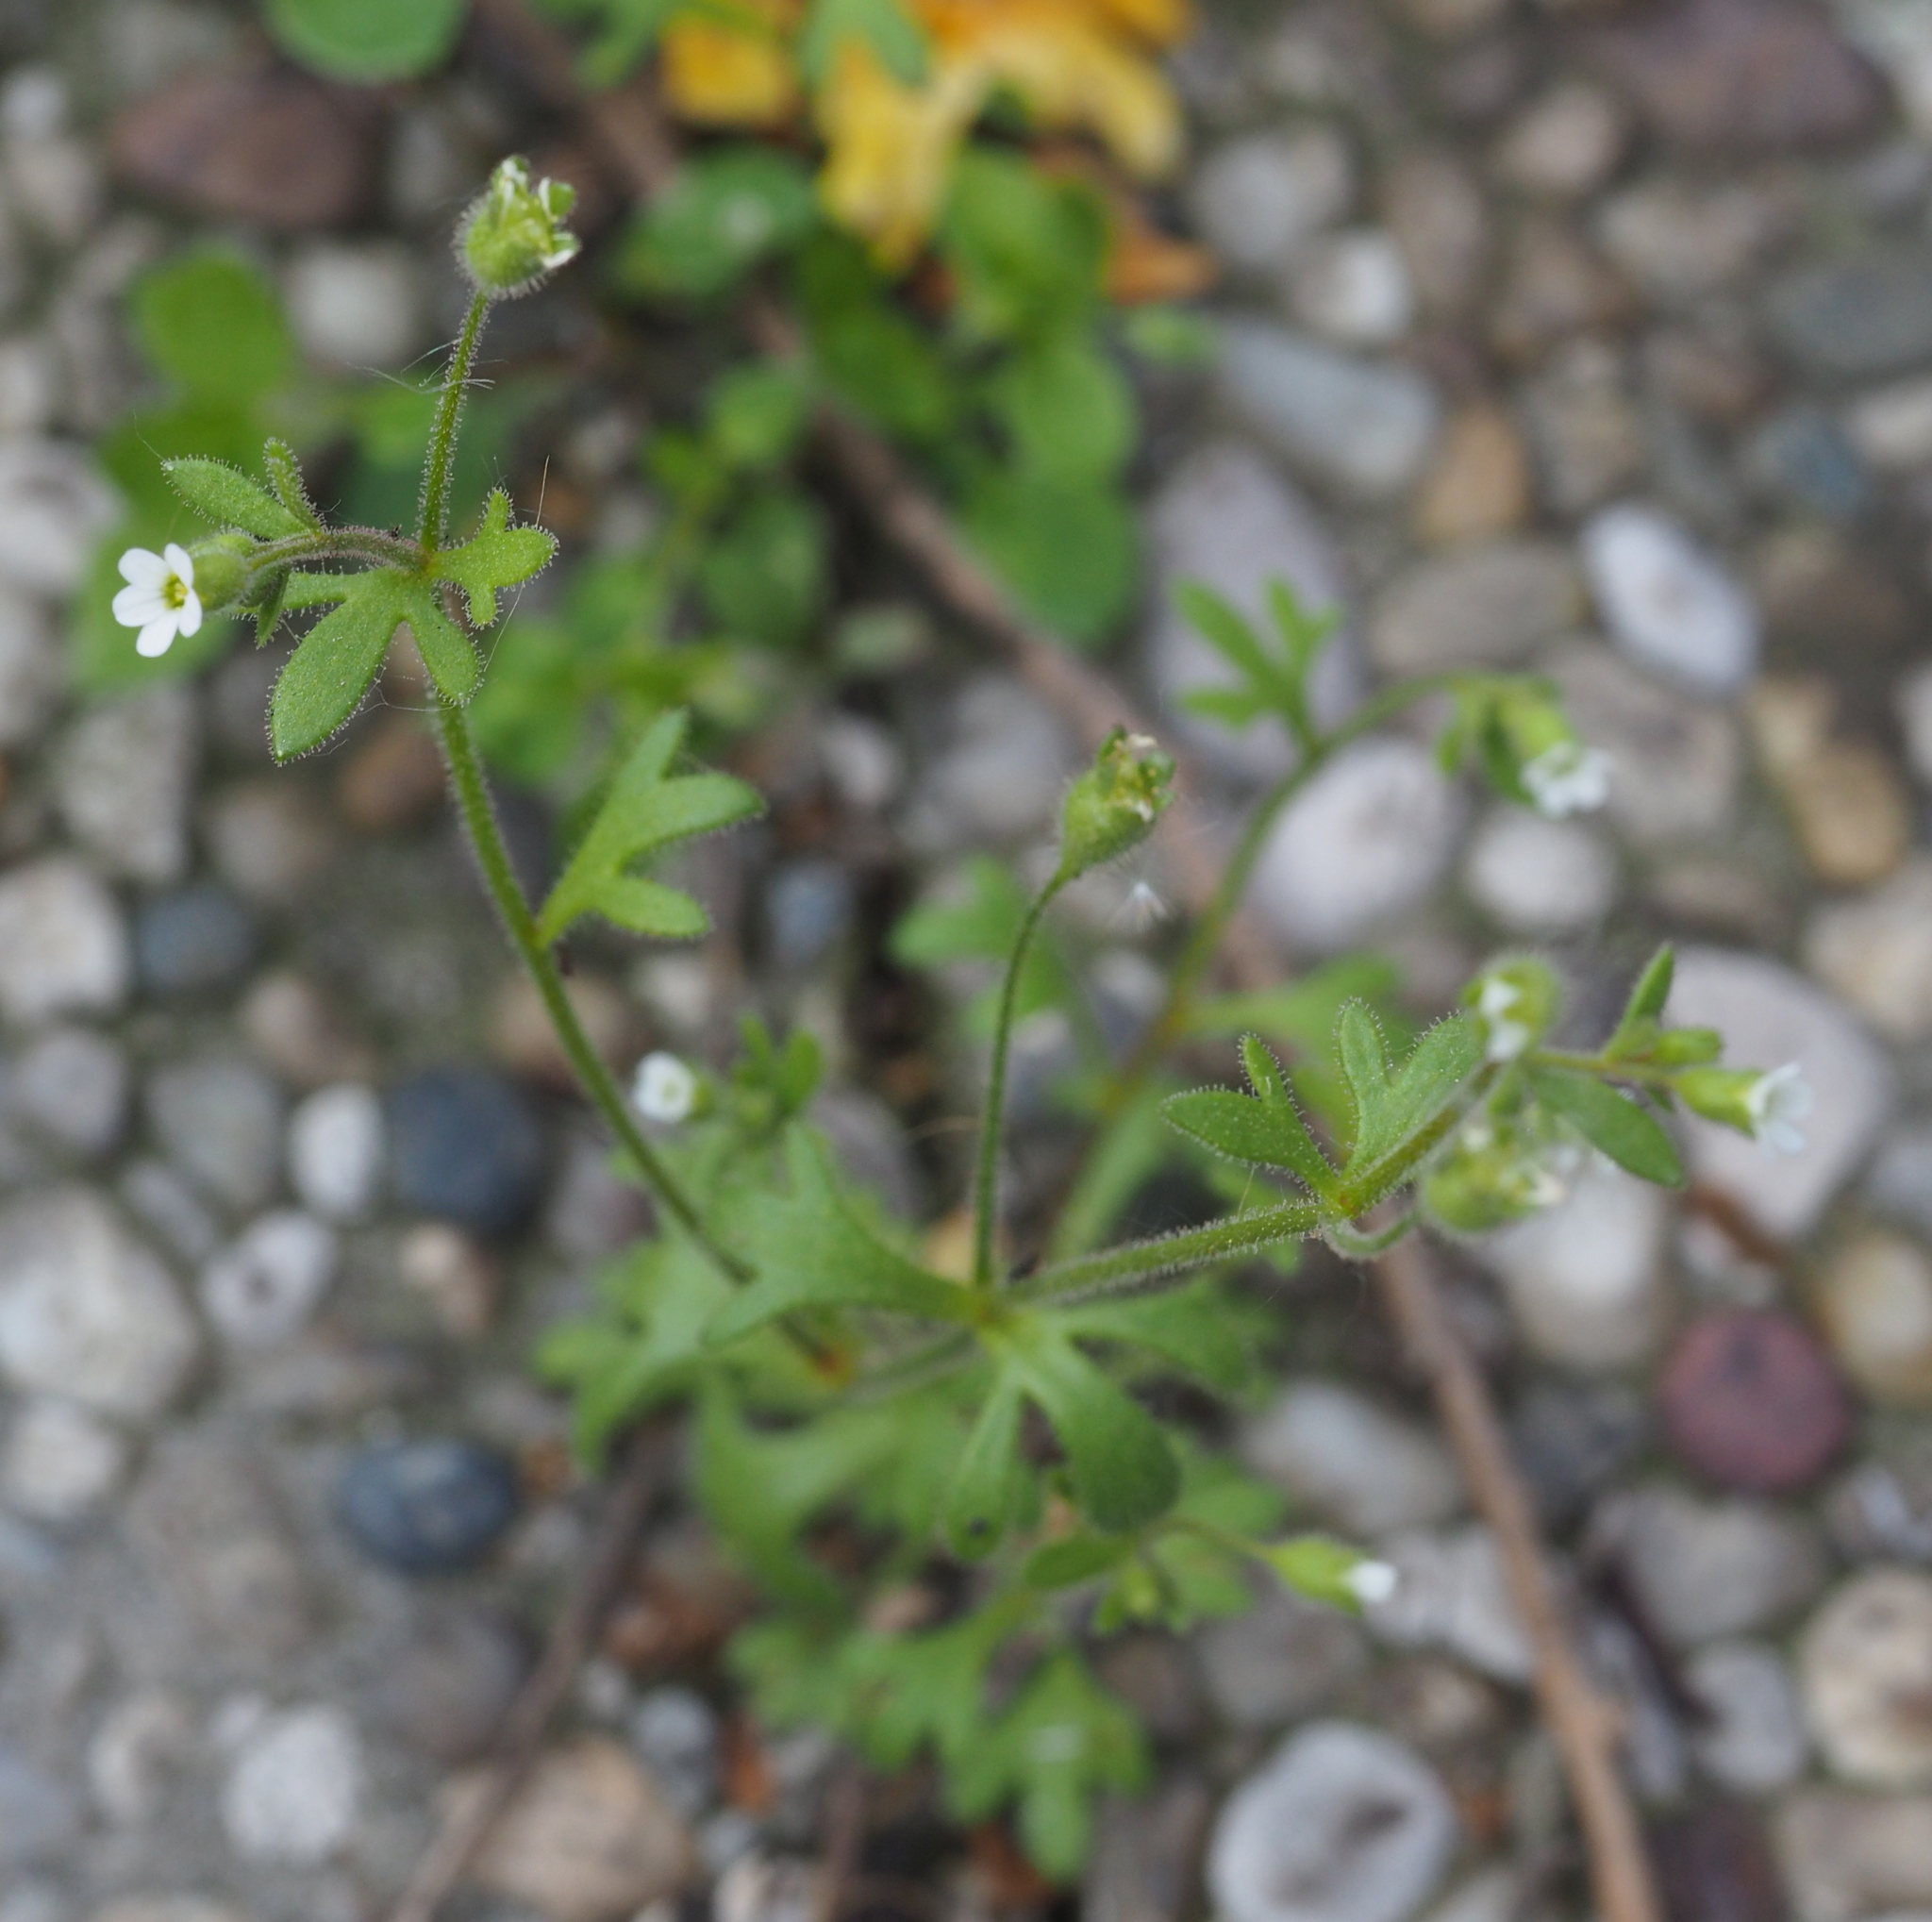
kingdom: Plantae
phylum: Tracheophyta
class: Magnoliopsida
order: Saxifragales
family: Saxifragaceae
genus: Saxifraga
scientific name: Saxifraga tridactylites
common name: Rue-leaved saxifrage
